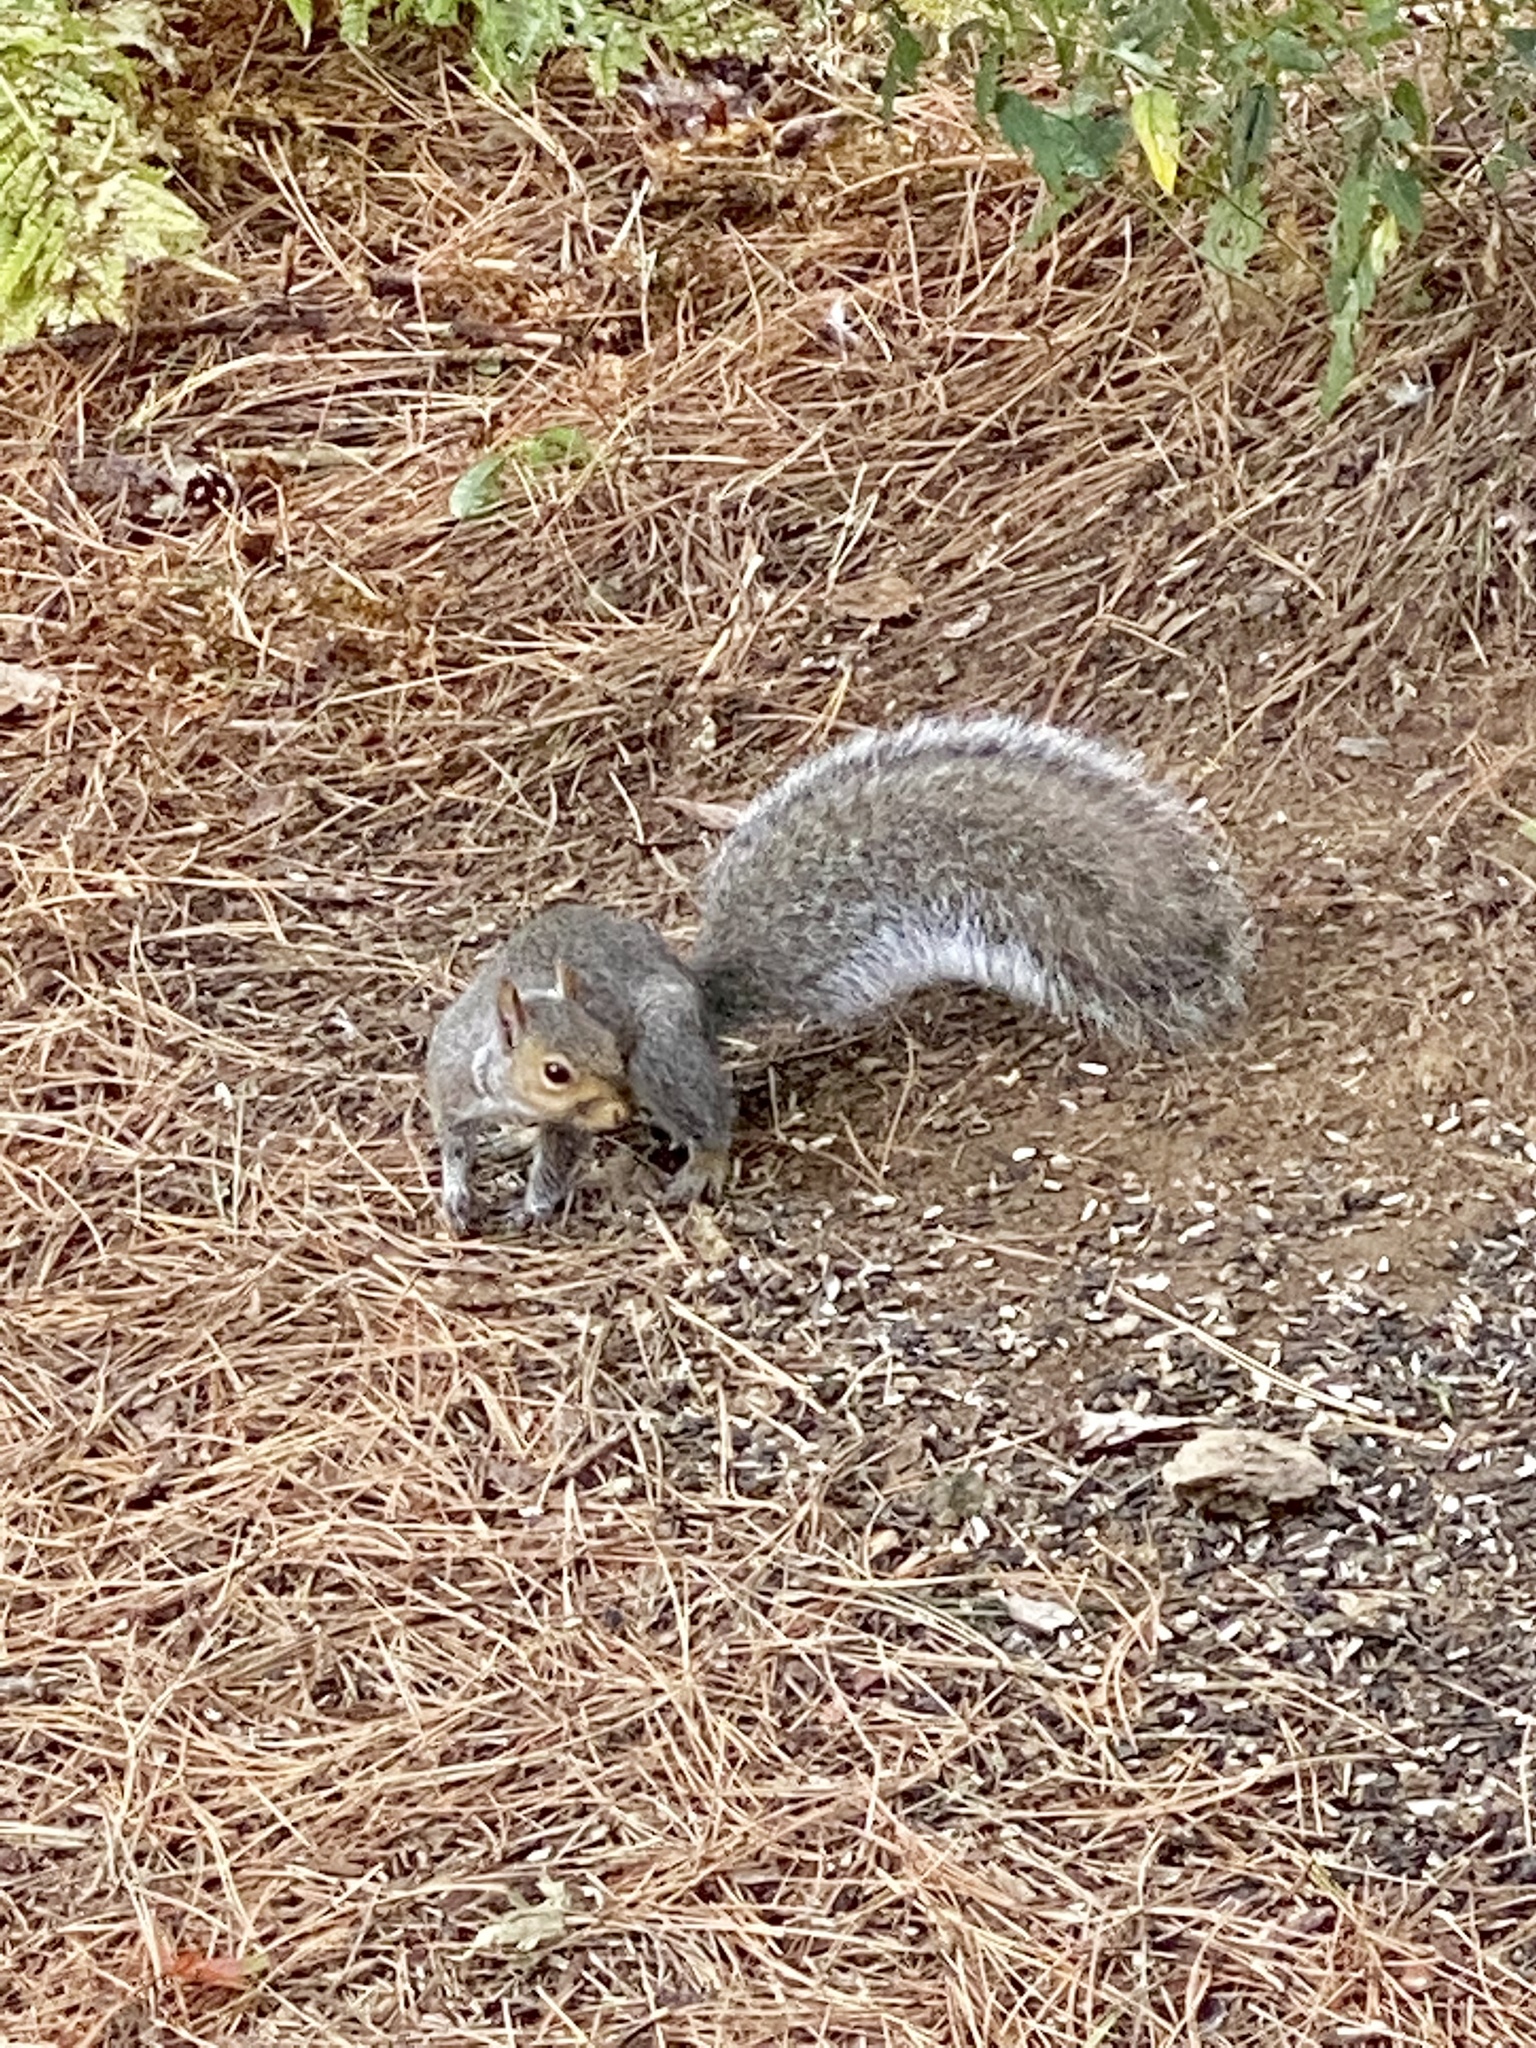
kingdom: Animalia
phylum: Chordata
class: Mammalia
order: Rodentia
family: Sciuridae
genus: Sciurus
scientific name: Sciurus carolinensis
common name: Eastern gray squirrel
